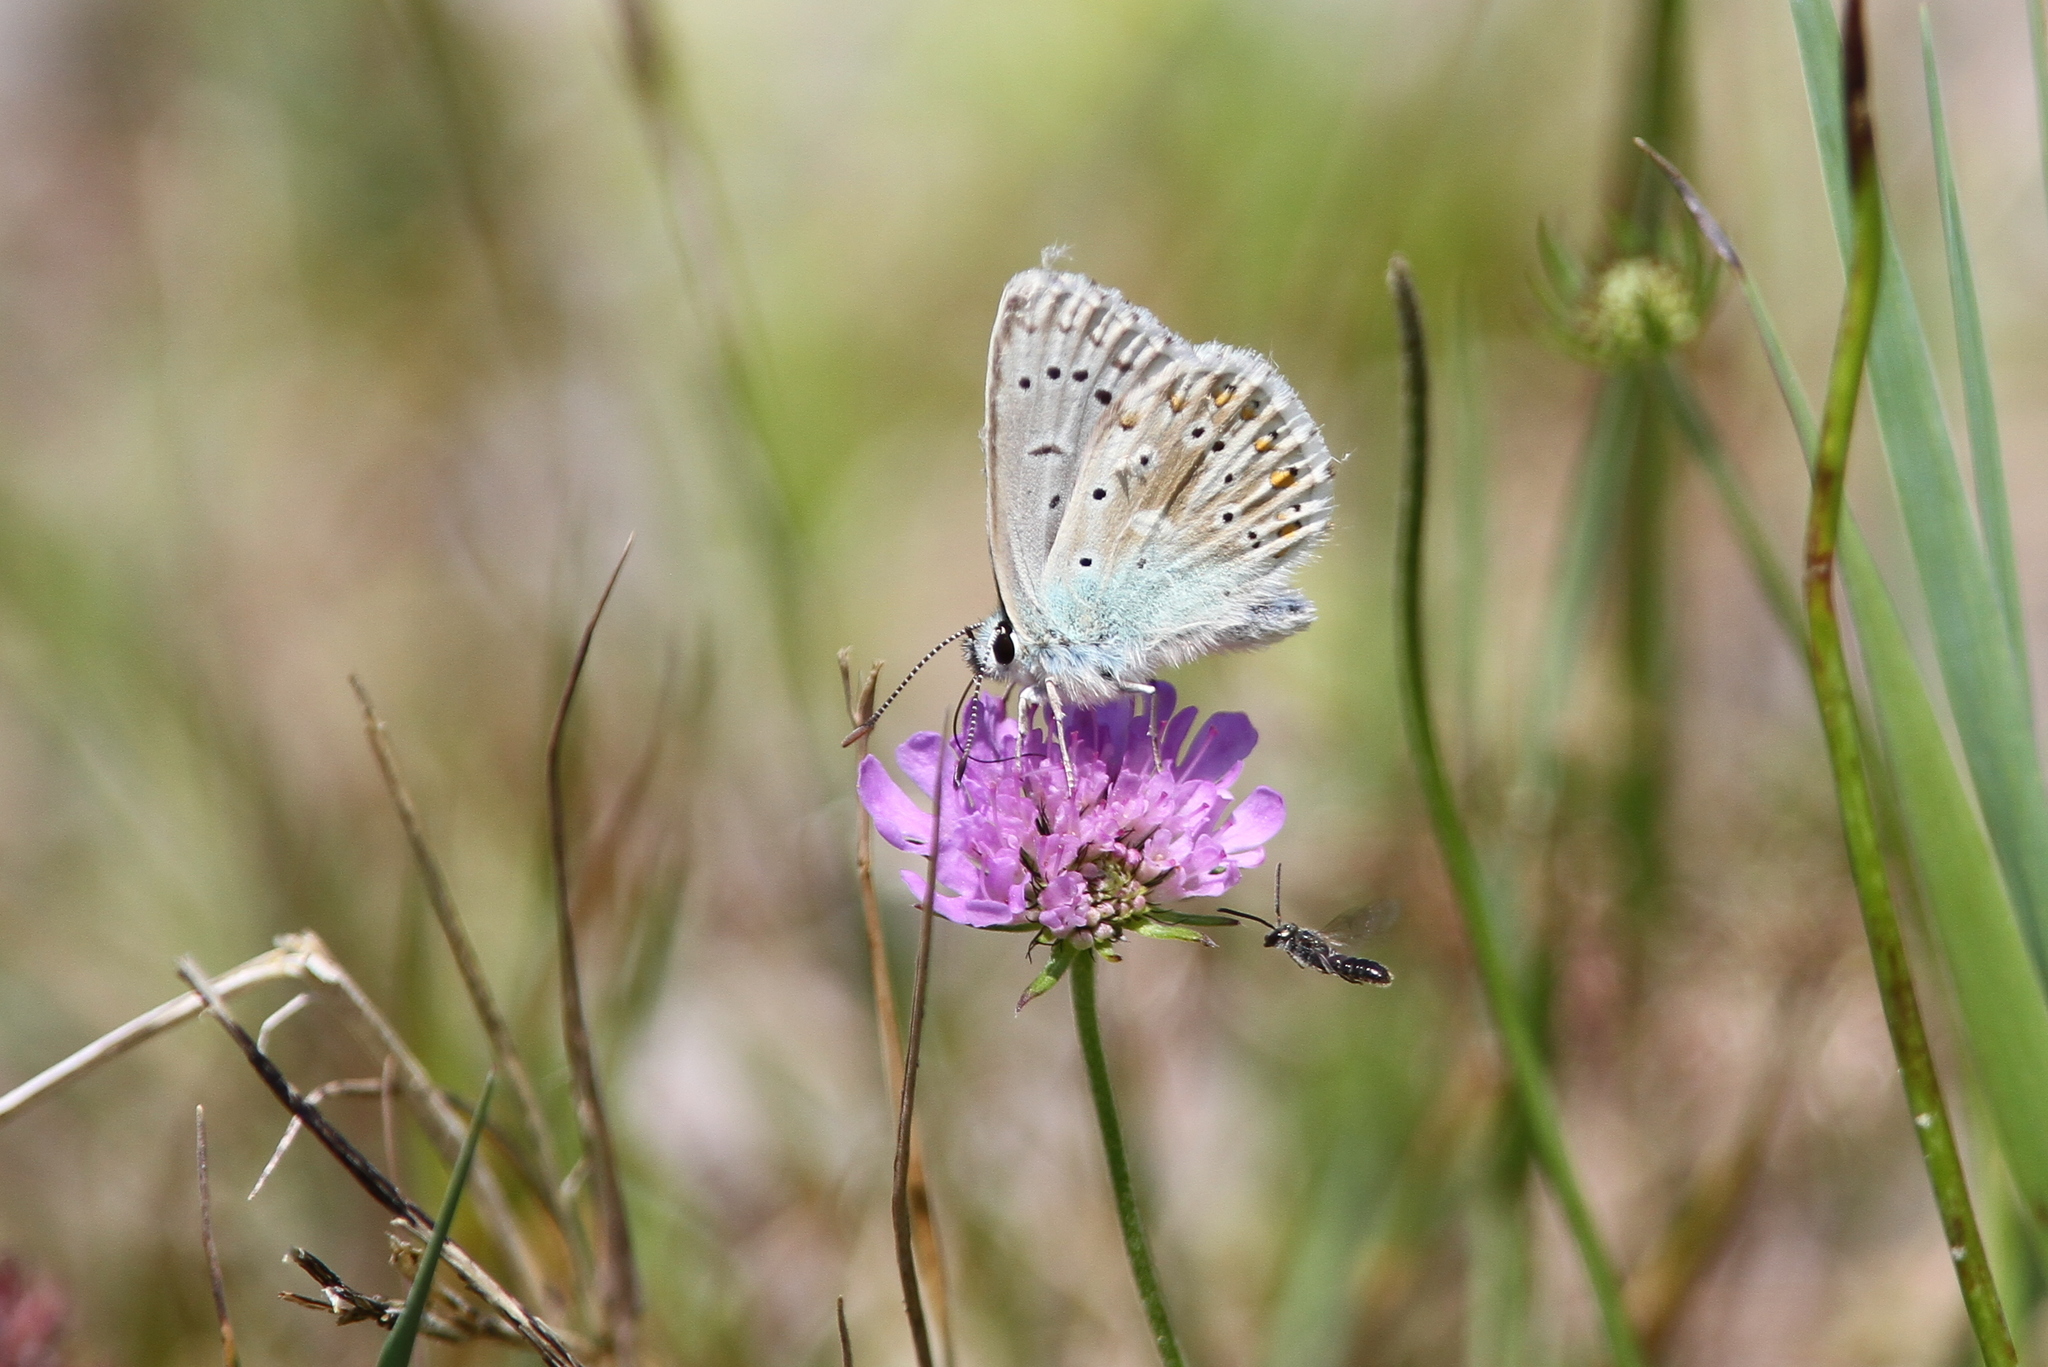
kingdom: Animalia
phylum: Arthropoda
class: Insecta
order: Lepidoptera
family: Lycaenidae
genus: Lysandra
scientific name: Lysandra coridon
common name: Chalkhill blue
